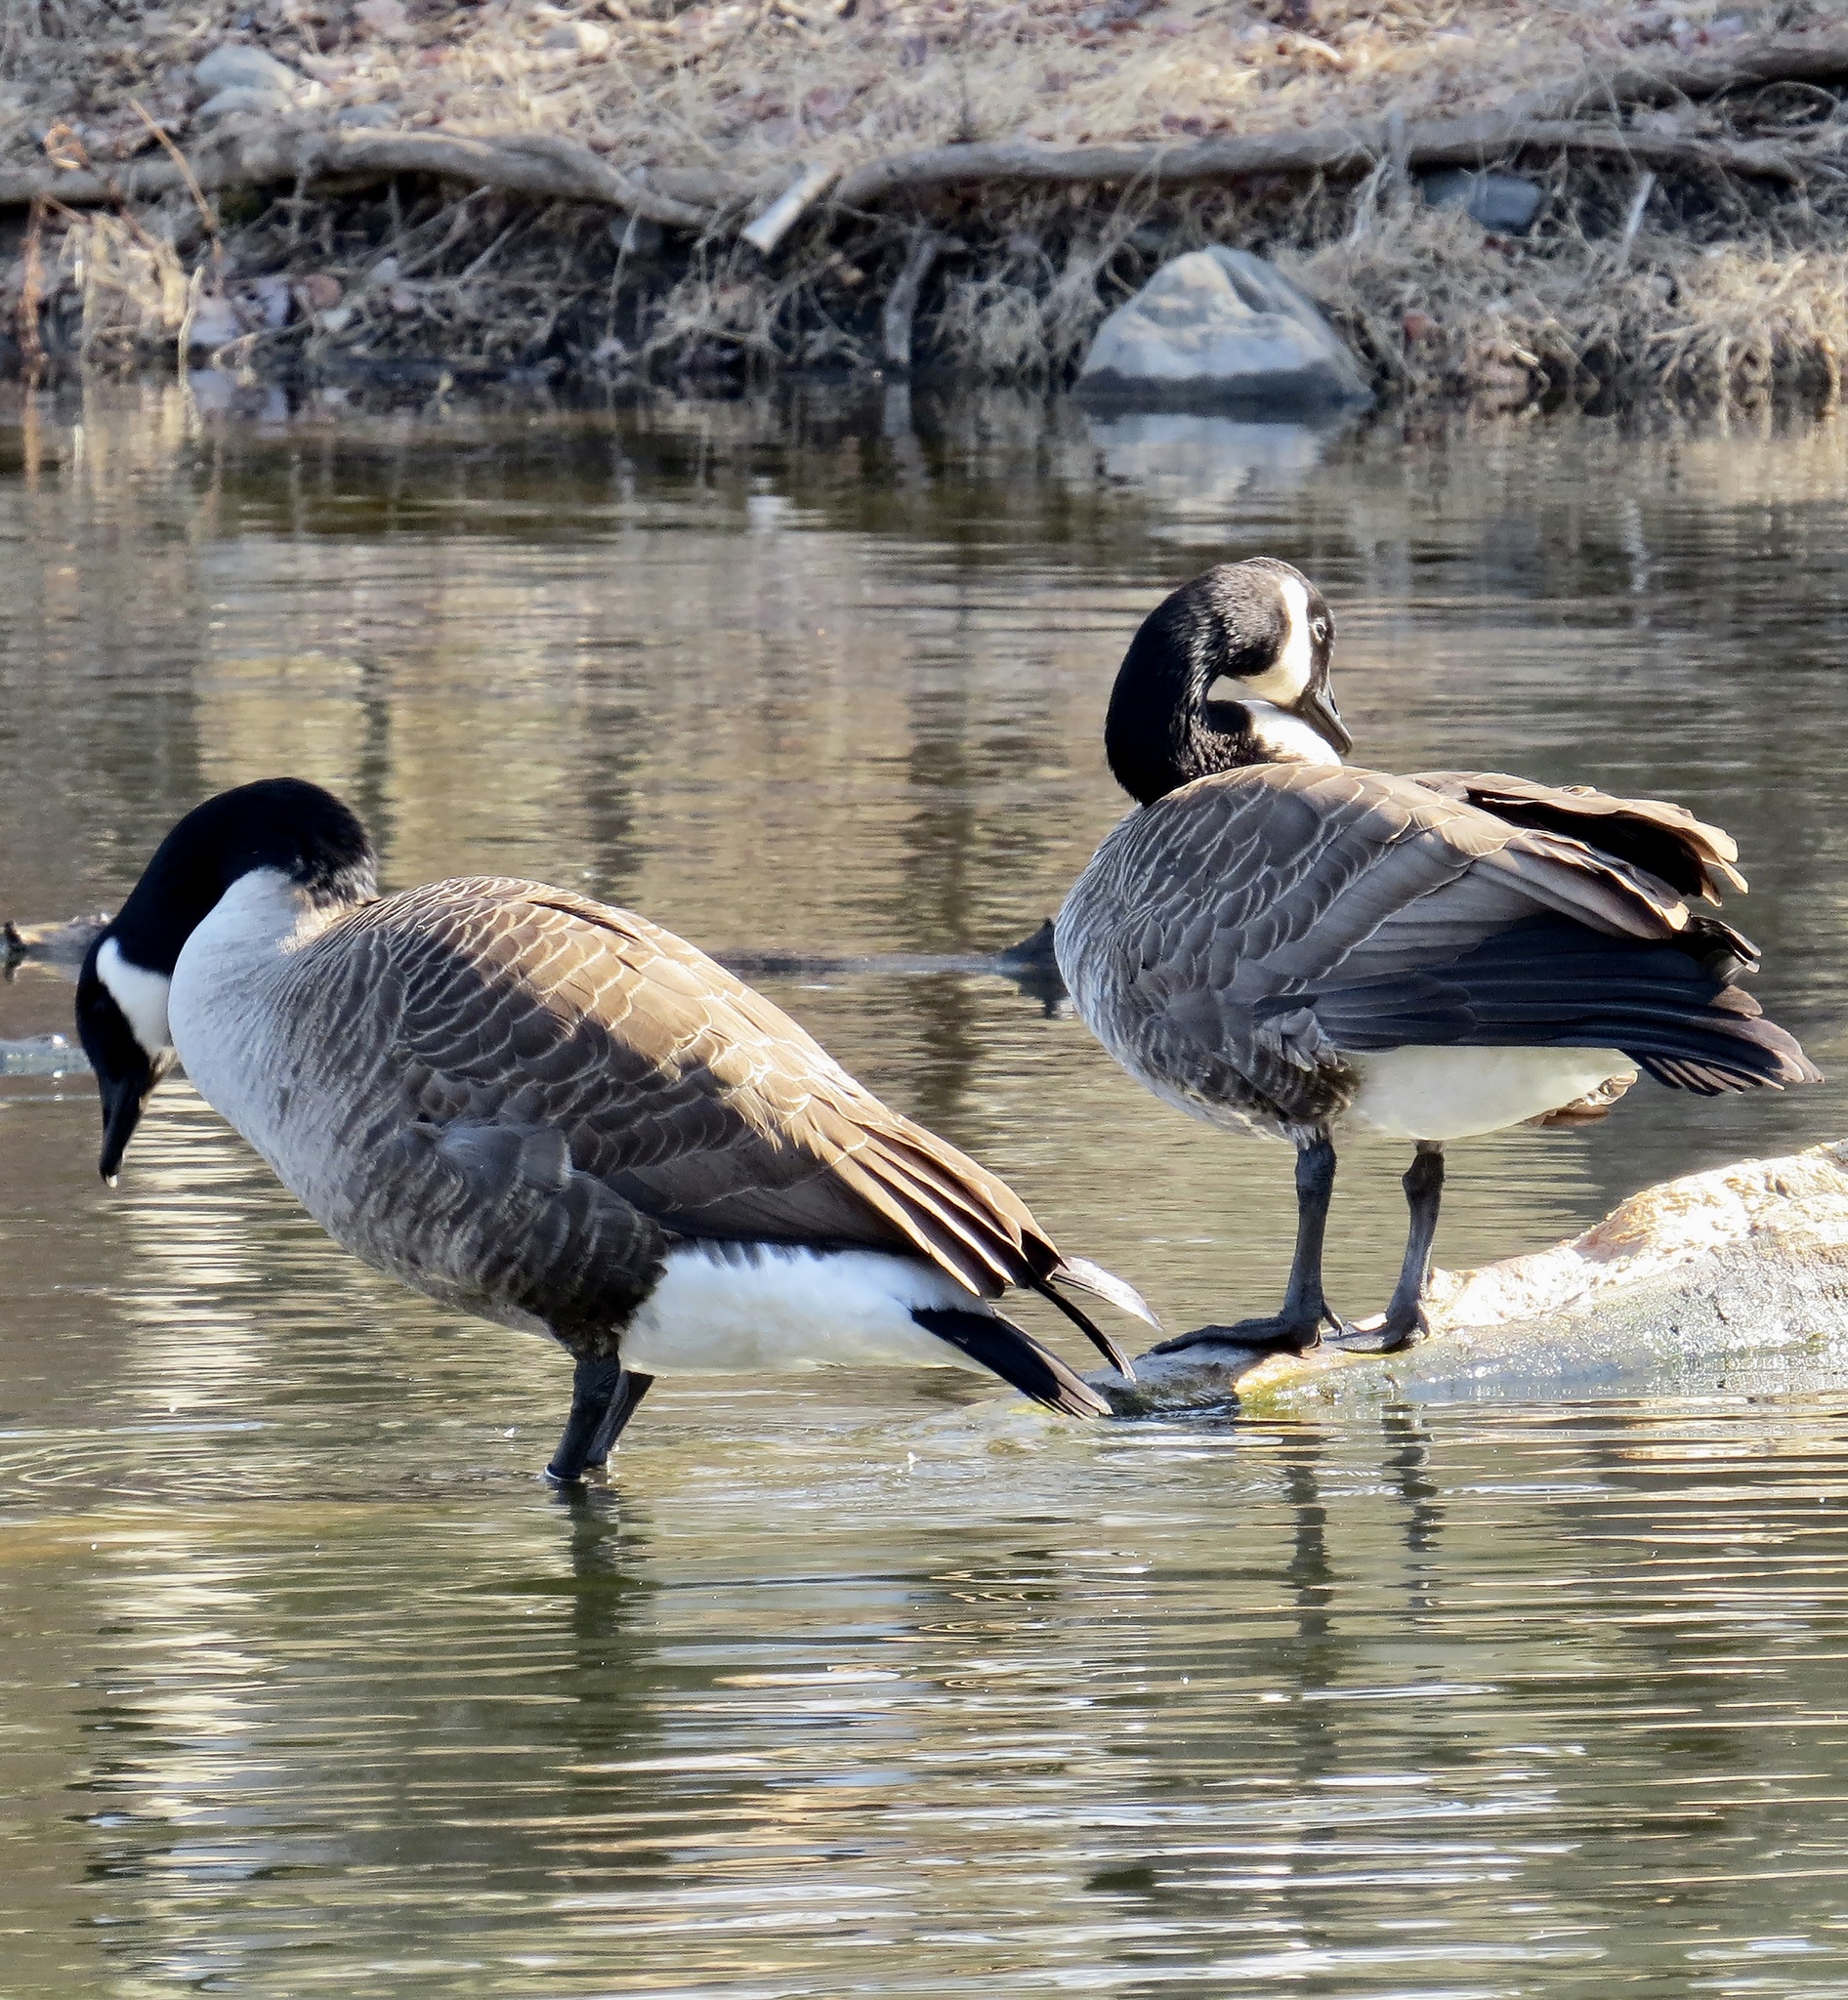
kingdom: Animalia
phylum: Chordata
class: Aves
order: Anseriformes
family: Anatidae
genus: Branta
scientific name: Branta canadensis
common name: Canada goose
